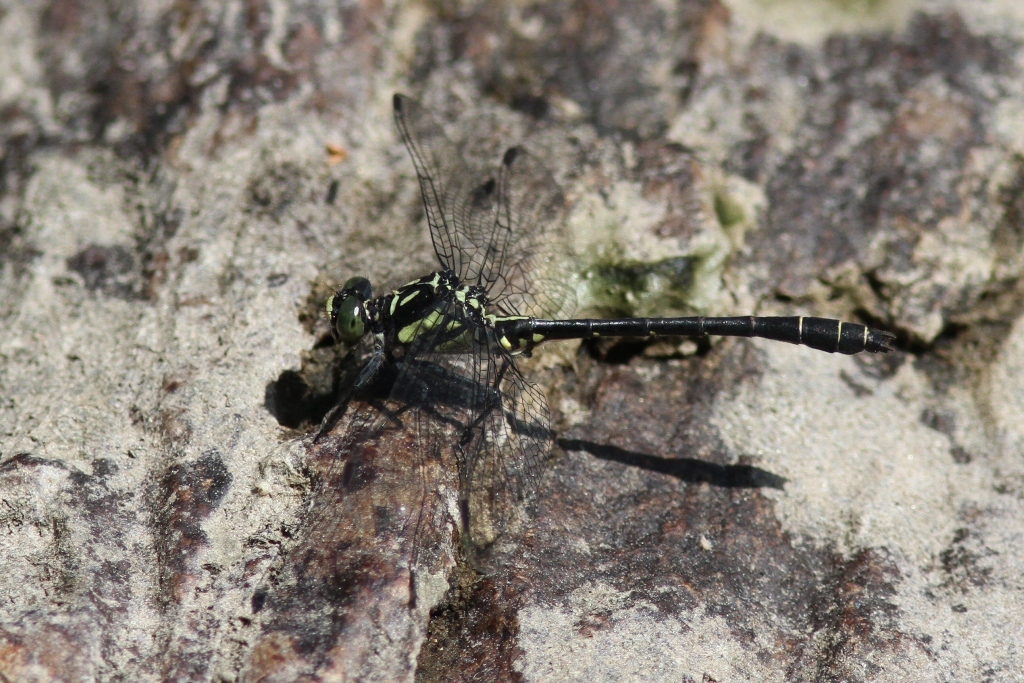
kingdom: Animalia
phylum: Arthropoda
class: Insecta
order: Odonata
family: Gomphidae
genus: Lanthus
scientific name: Lanthus parvulus
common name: Northern pygmy clubtail
